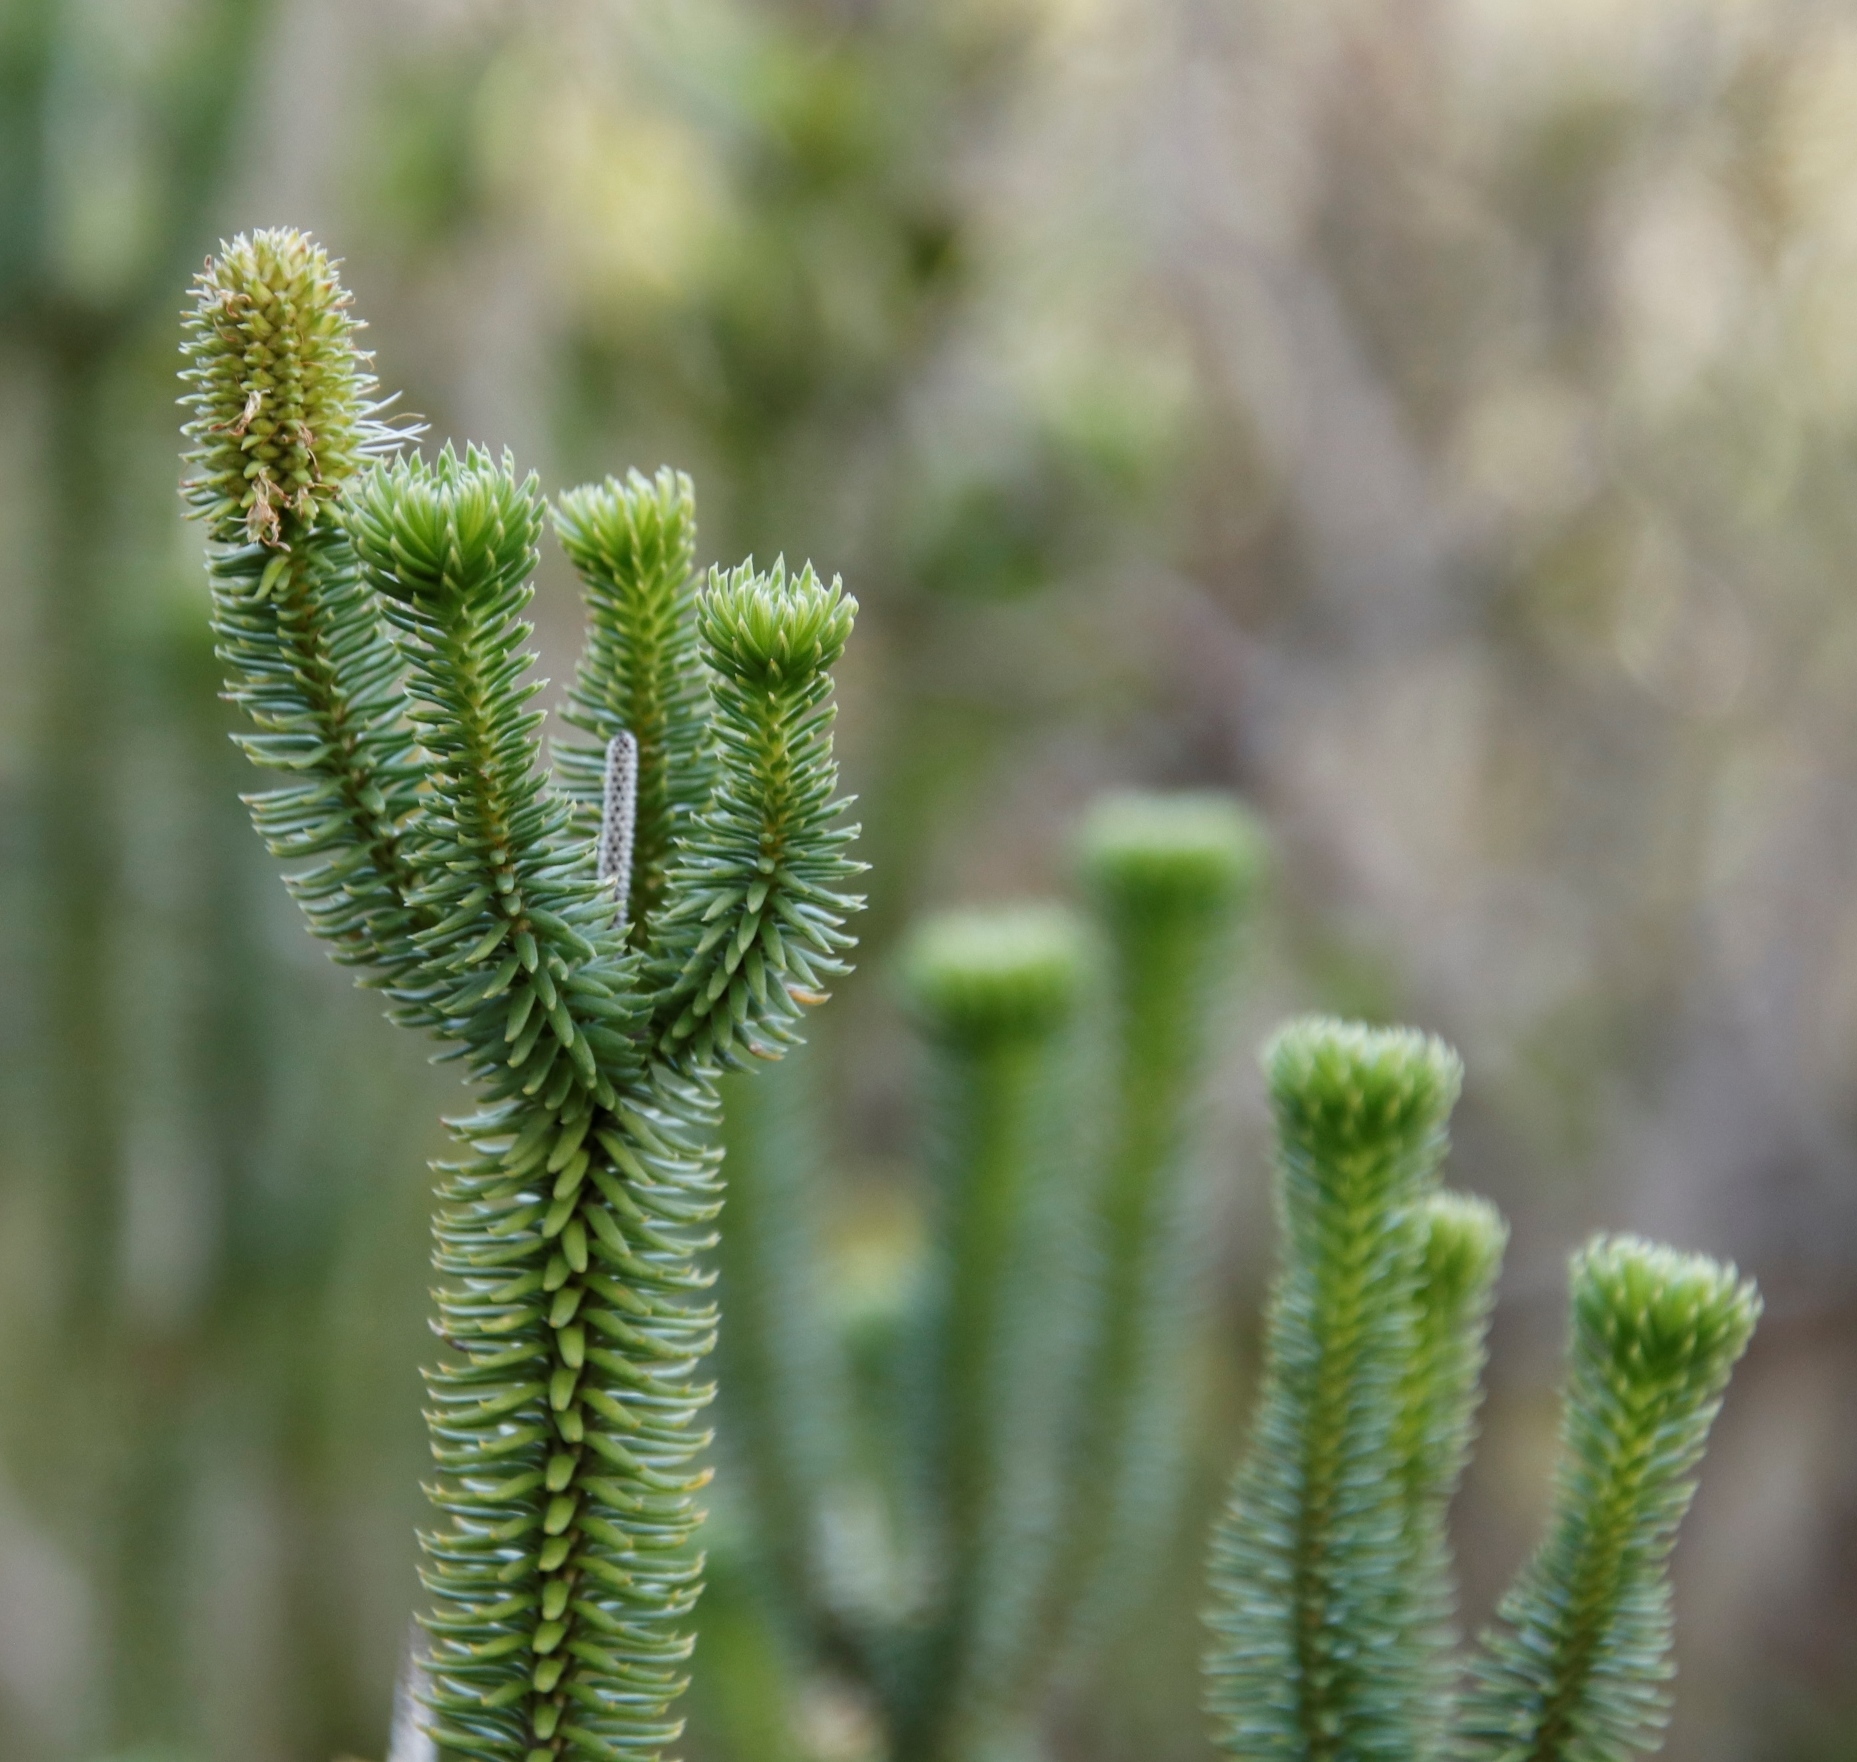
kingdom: Plantae
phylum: Tracheophyta
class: Magnoliopsida
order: Lamiales
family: Stilbaceae
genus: Stilbe
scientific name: Stilbe vestita
